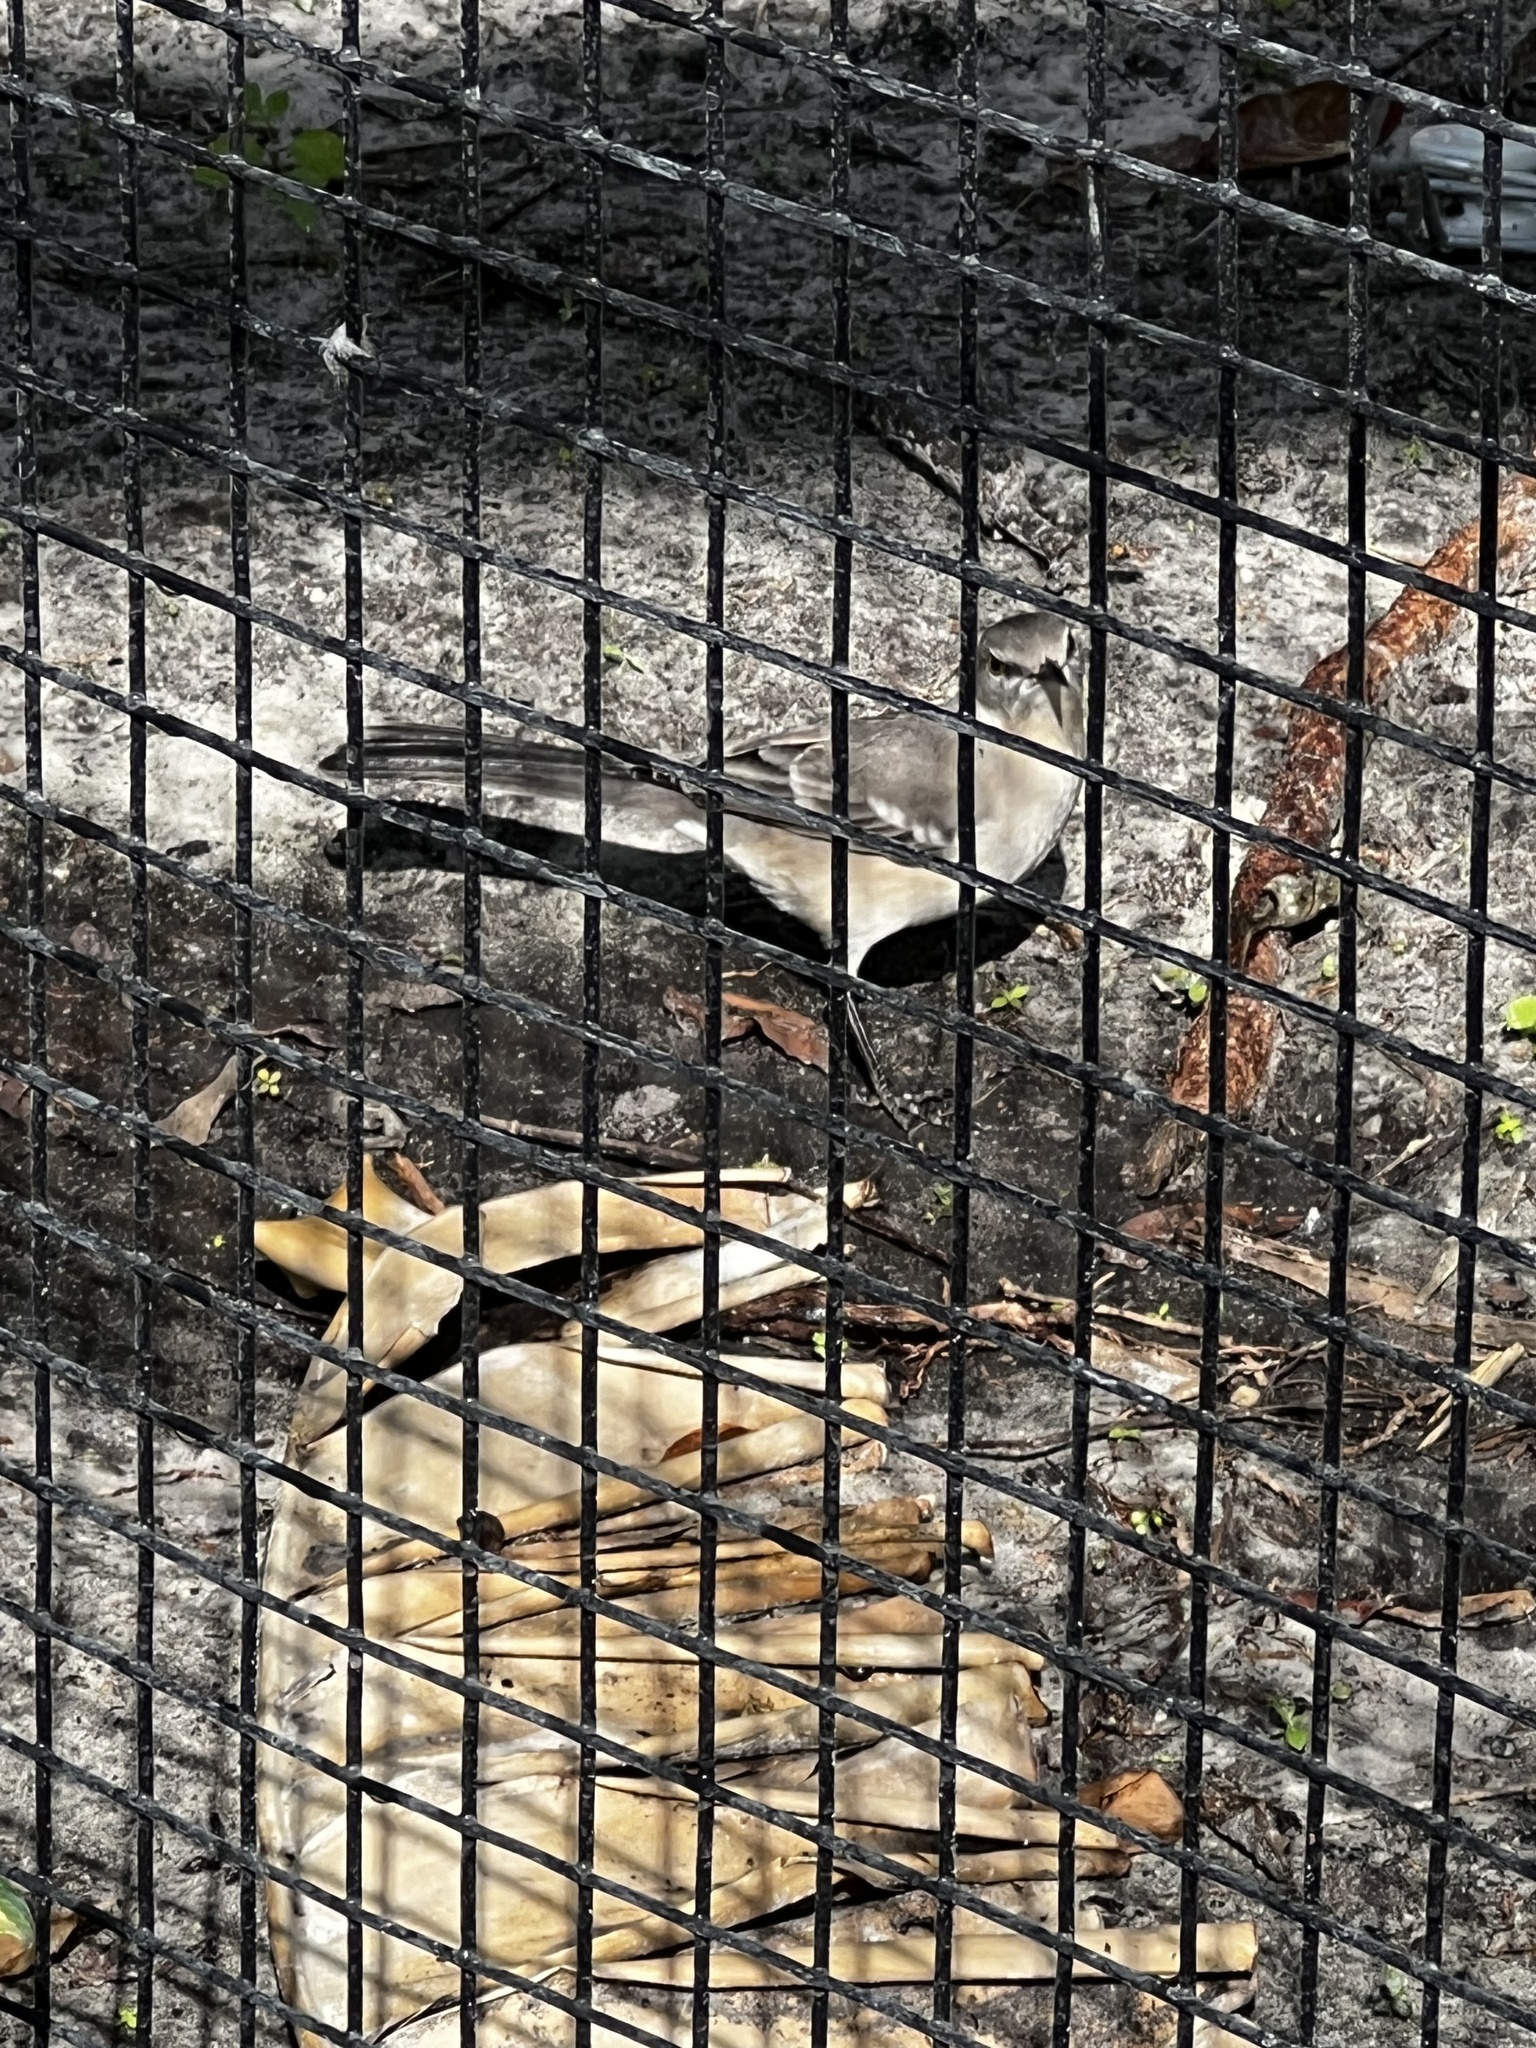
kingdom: Animalia
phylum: Chordata
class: Aves
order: Passeriformes
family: Mimidae
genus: Mimus
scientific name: Mimus polyglottos
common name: Northern mockingbird
